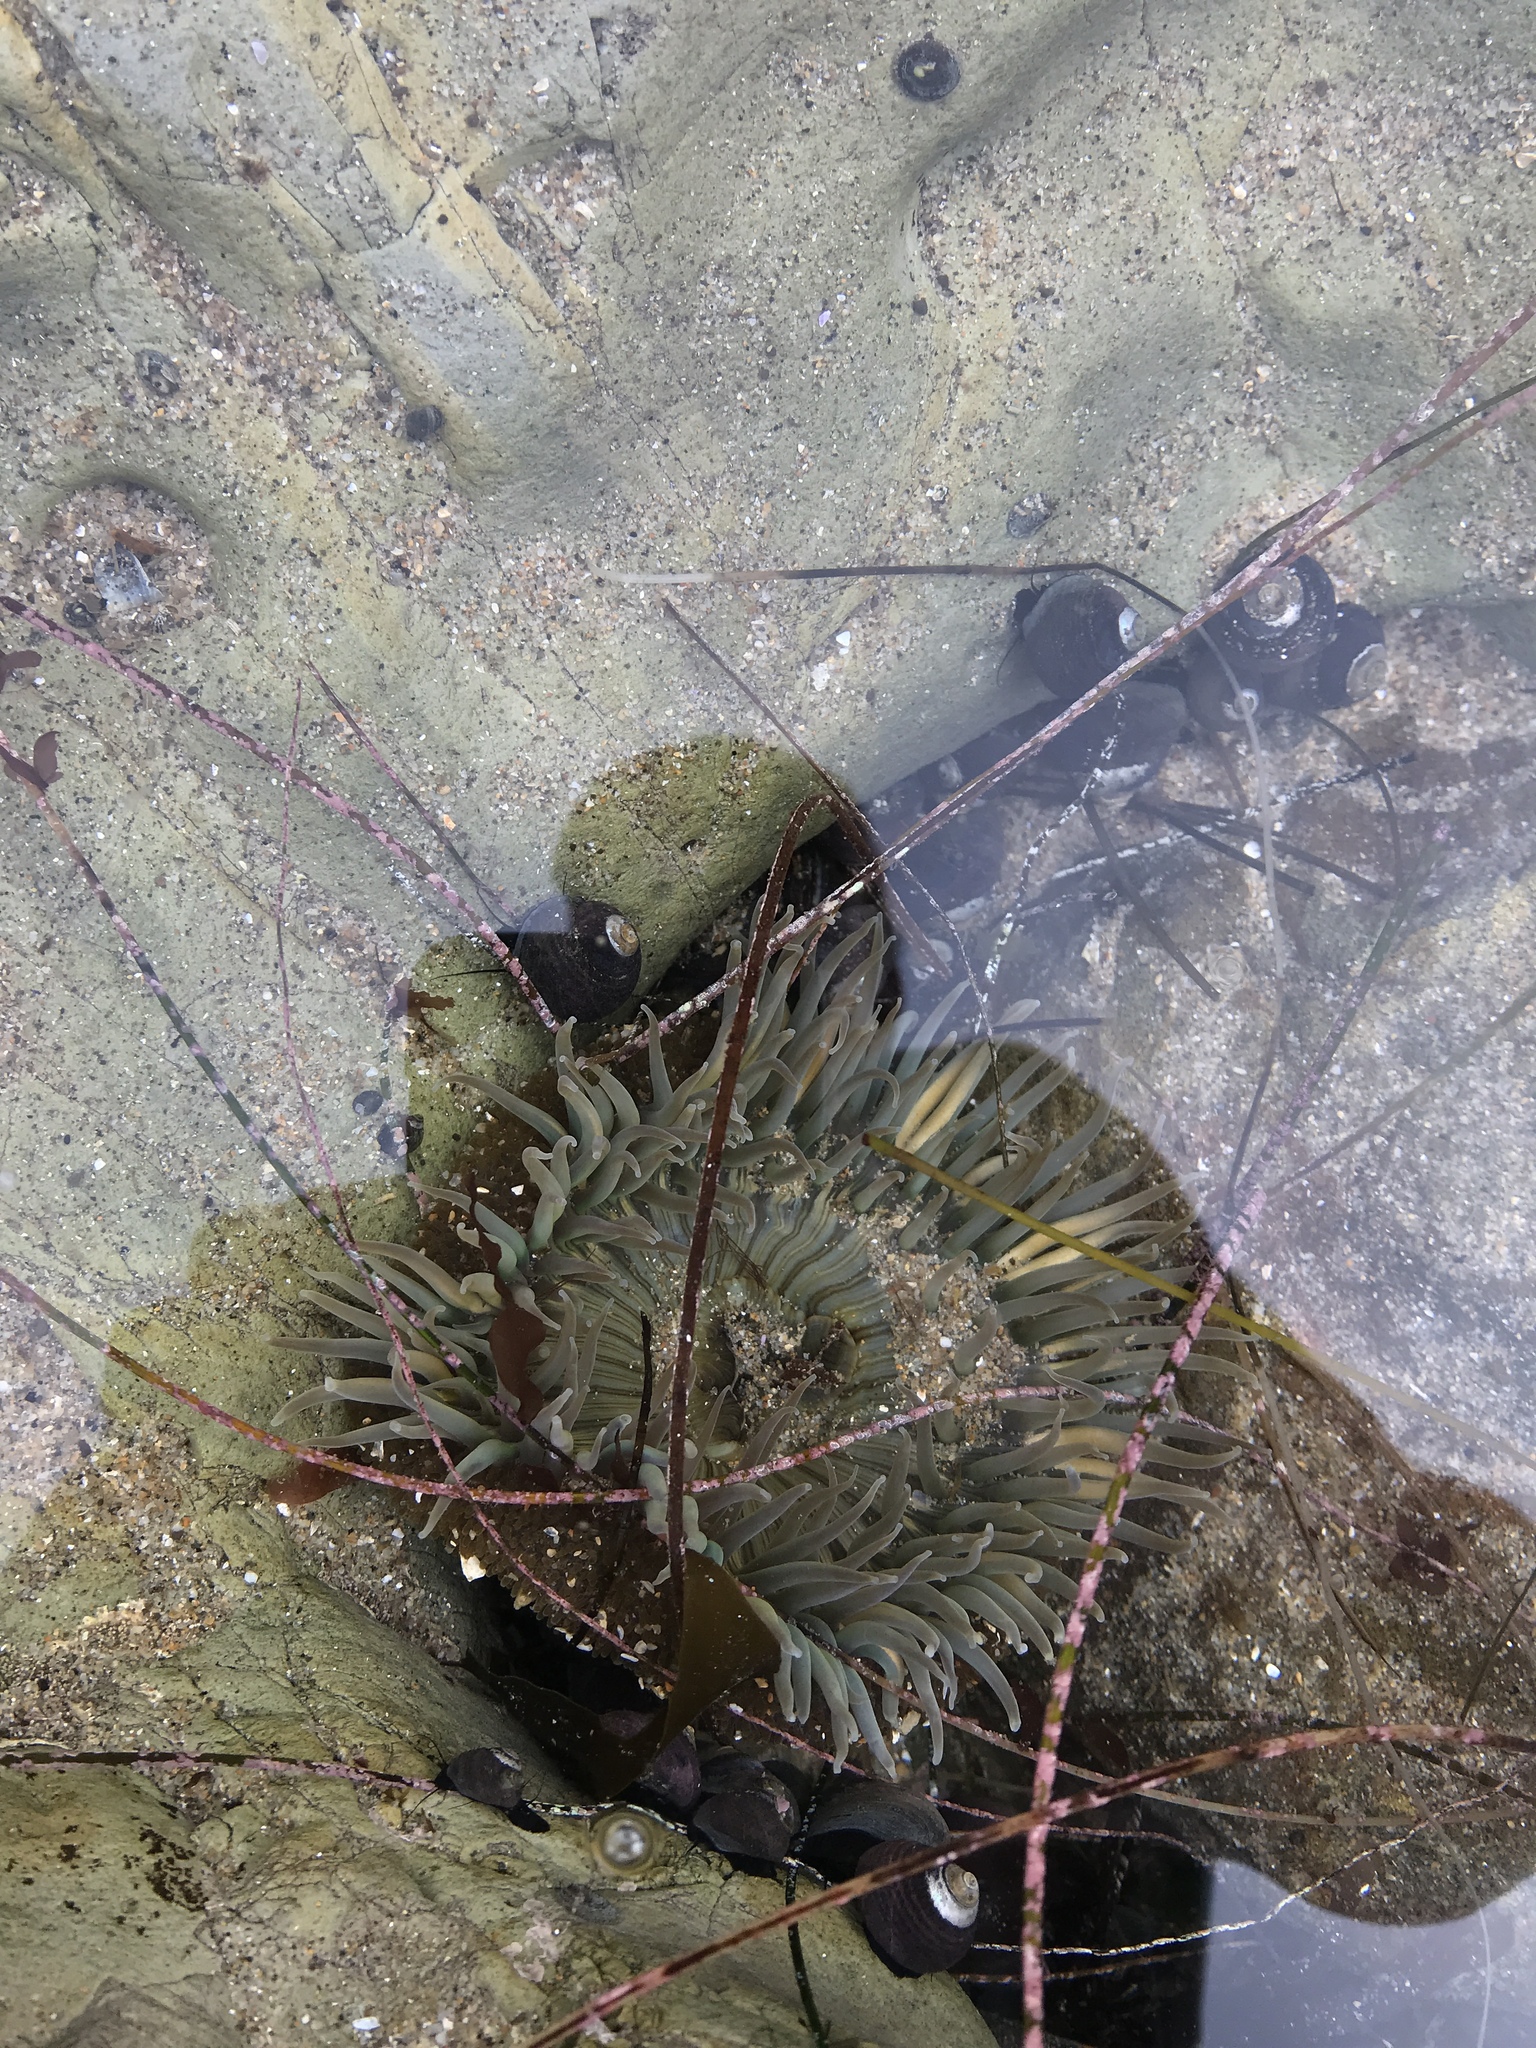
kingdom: Animalia
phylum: Cnidaria
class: Anthozoa
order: Actiniaria
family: Actiniidae
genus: Anthopleura
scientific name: Anthopleura sola
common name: Sun anemone
